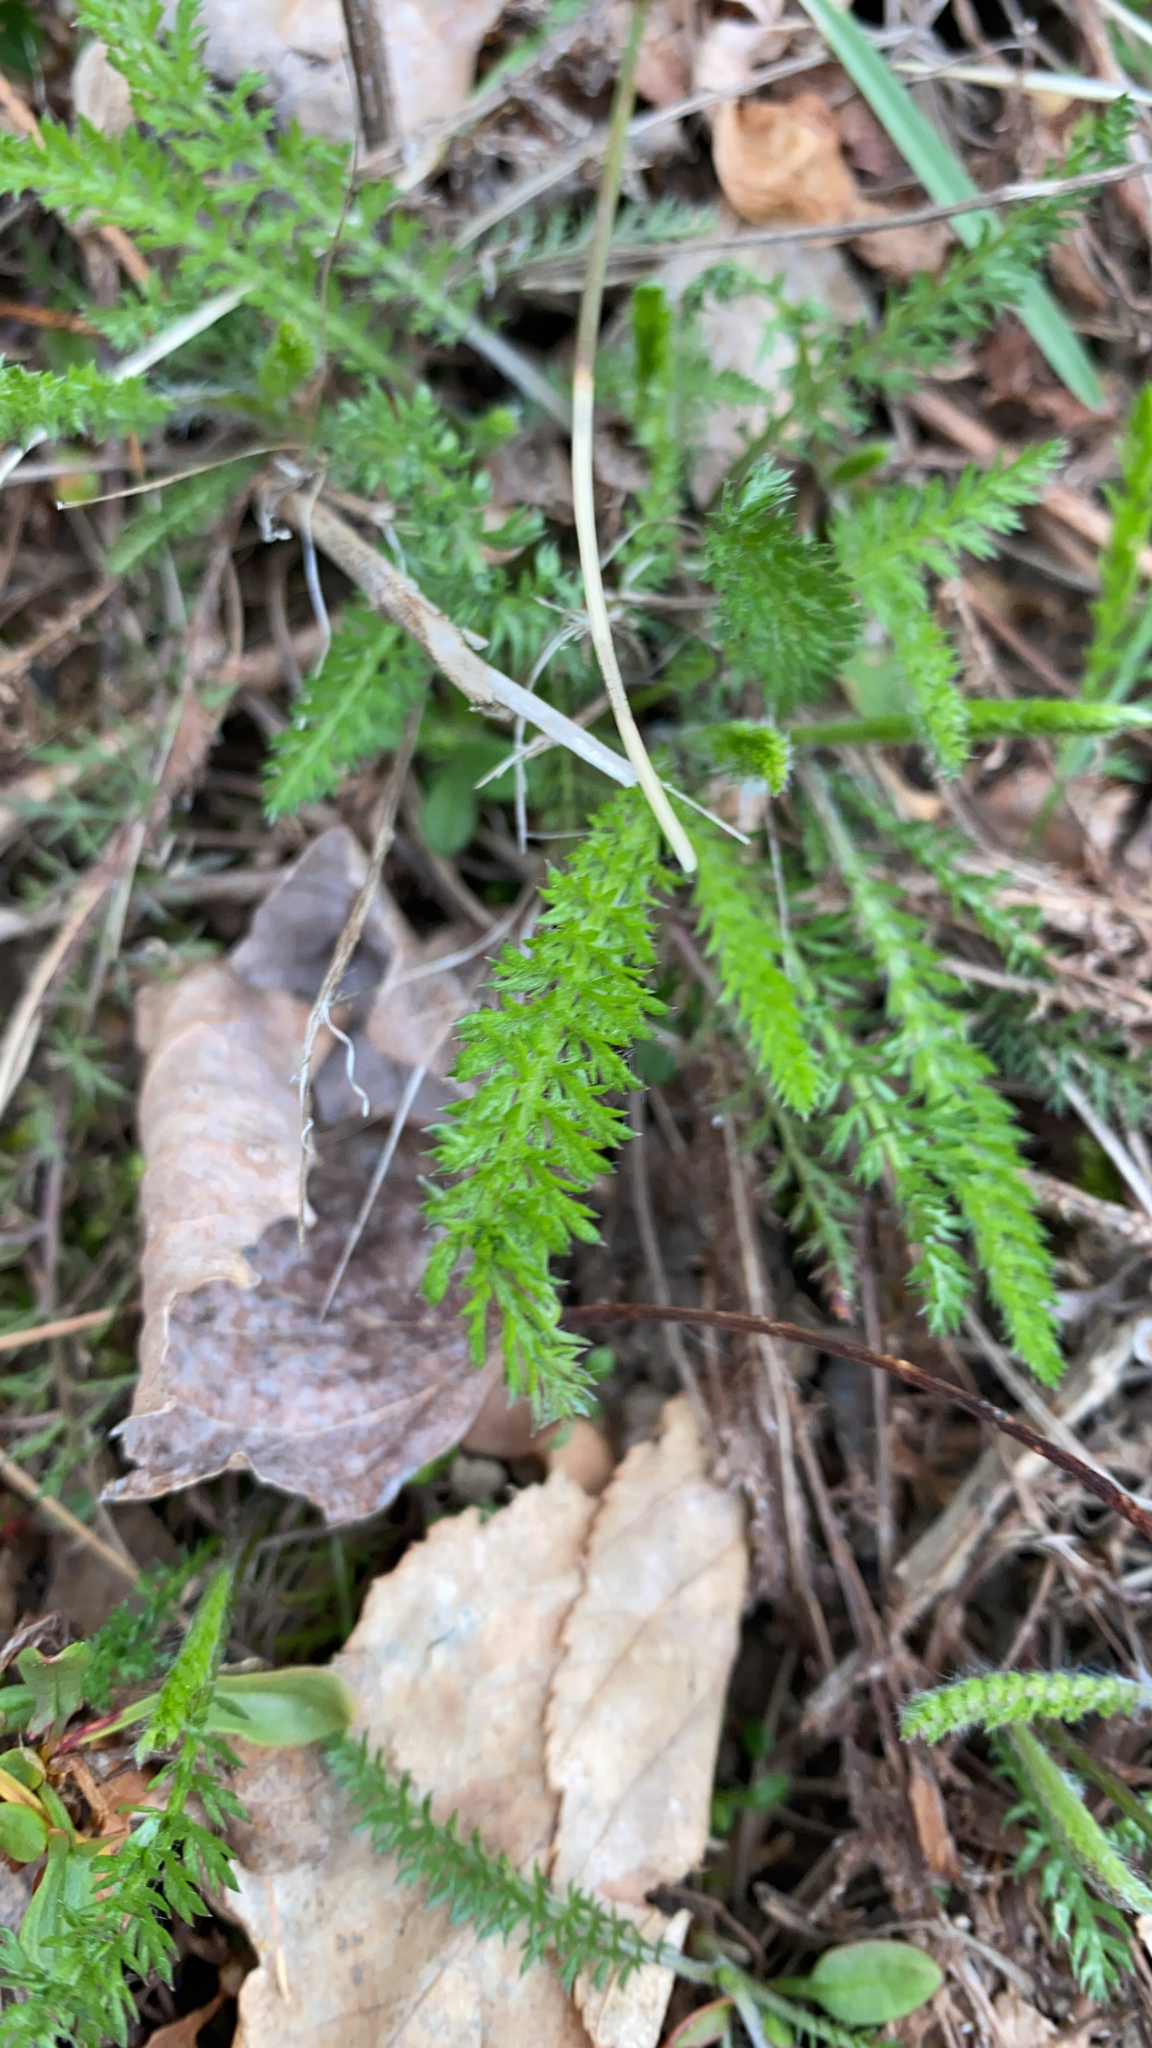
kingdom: Plantae
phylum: Tracheophyta
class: Magnoliopsida
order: Asterales
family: Asteraceae
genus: Achillea
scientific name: Achillea millefolium
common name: Yarrow
